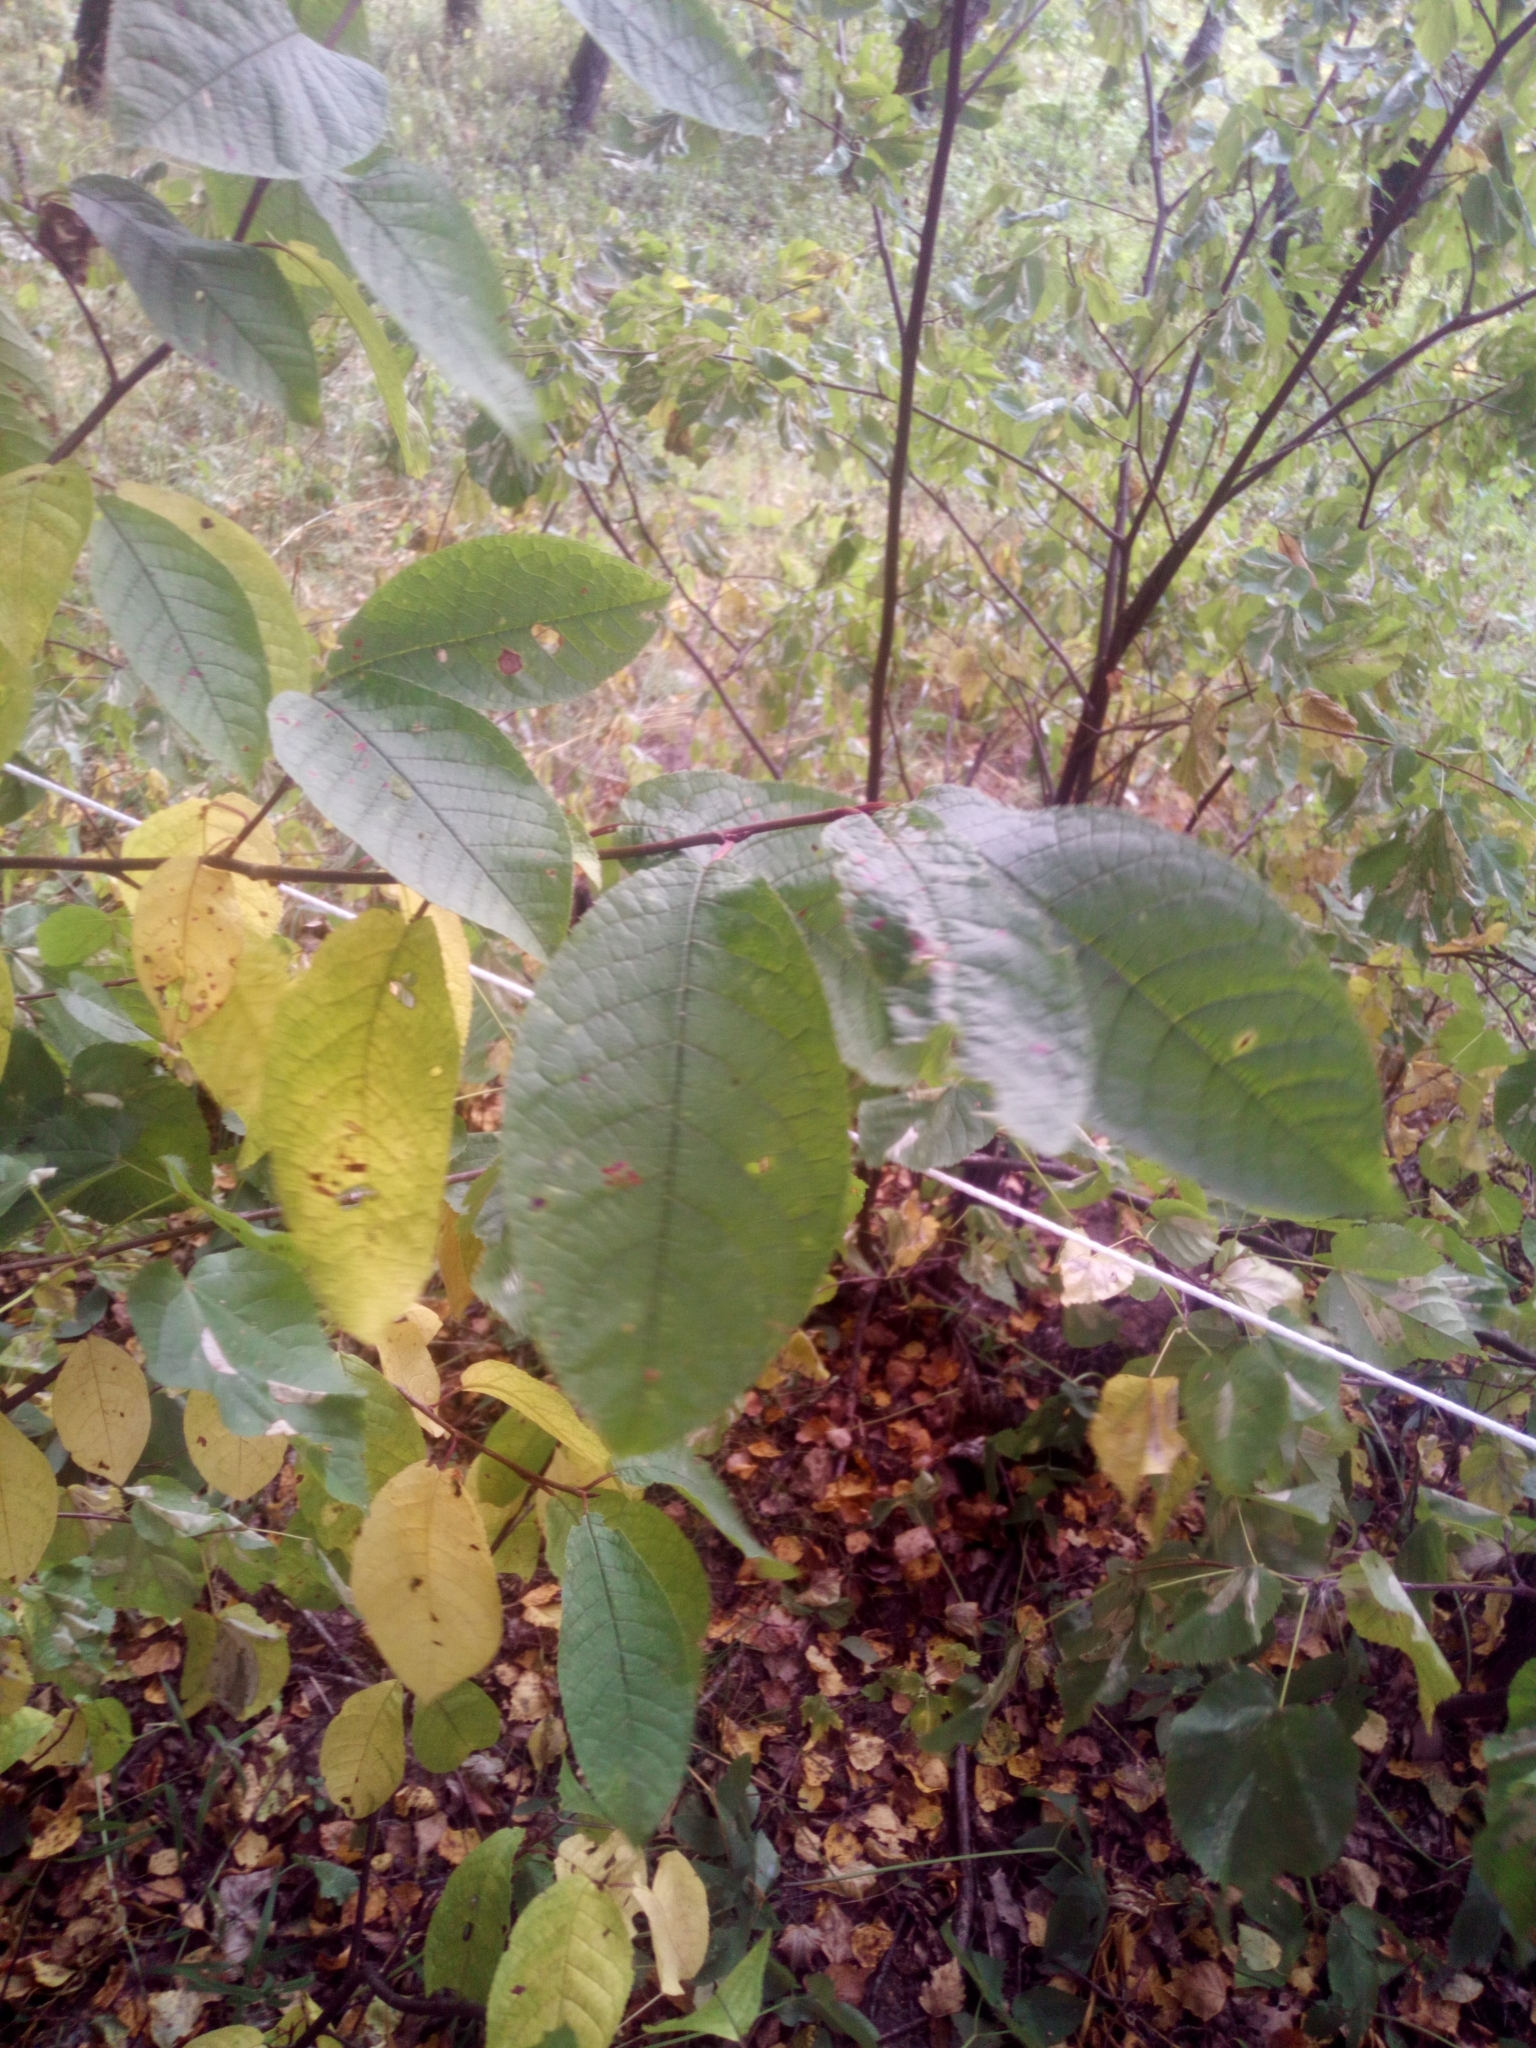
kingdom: Plantae
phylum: Tracheophyta
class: Magnoliopsida
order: Rosales
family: Rosaceae
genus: Prunus
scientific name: Prunus padus
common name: Bird cherry
